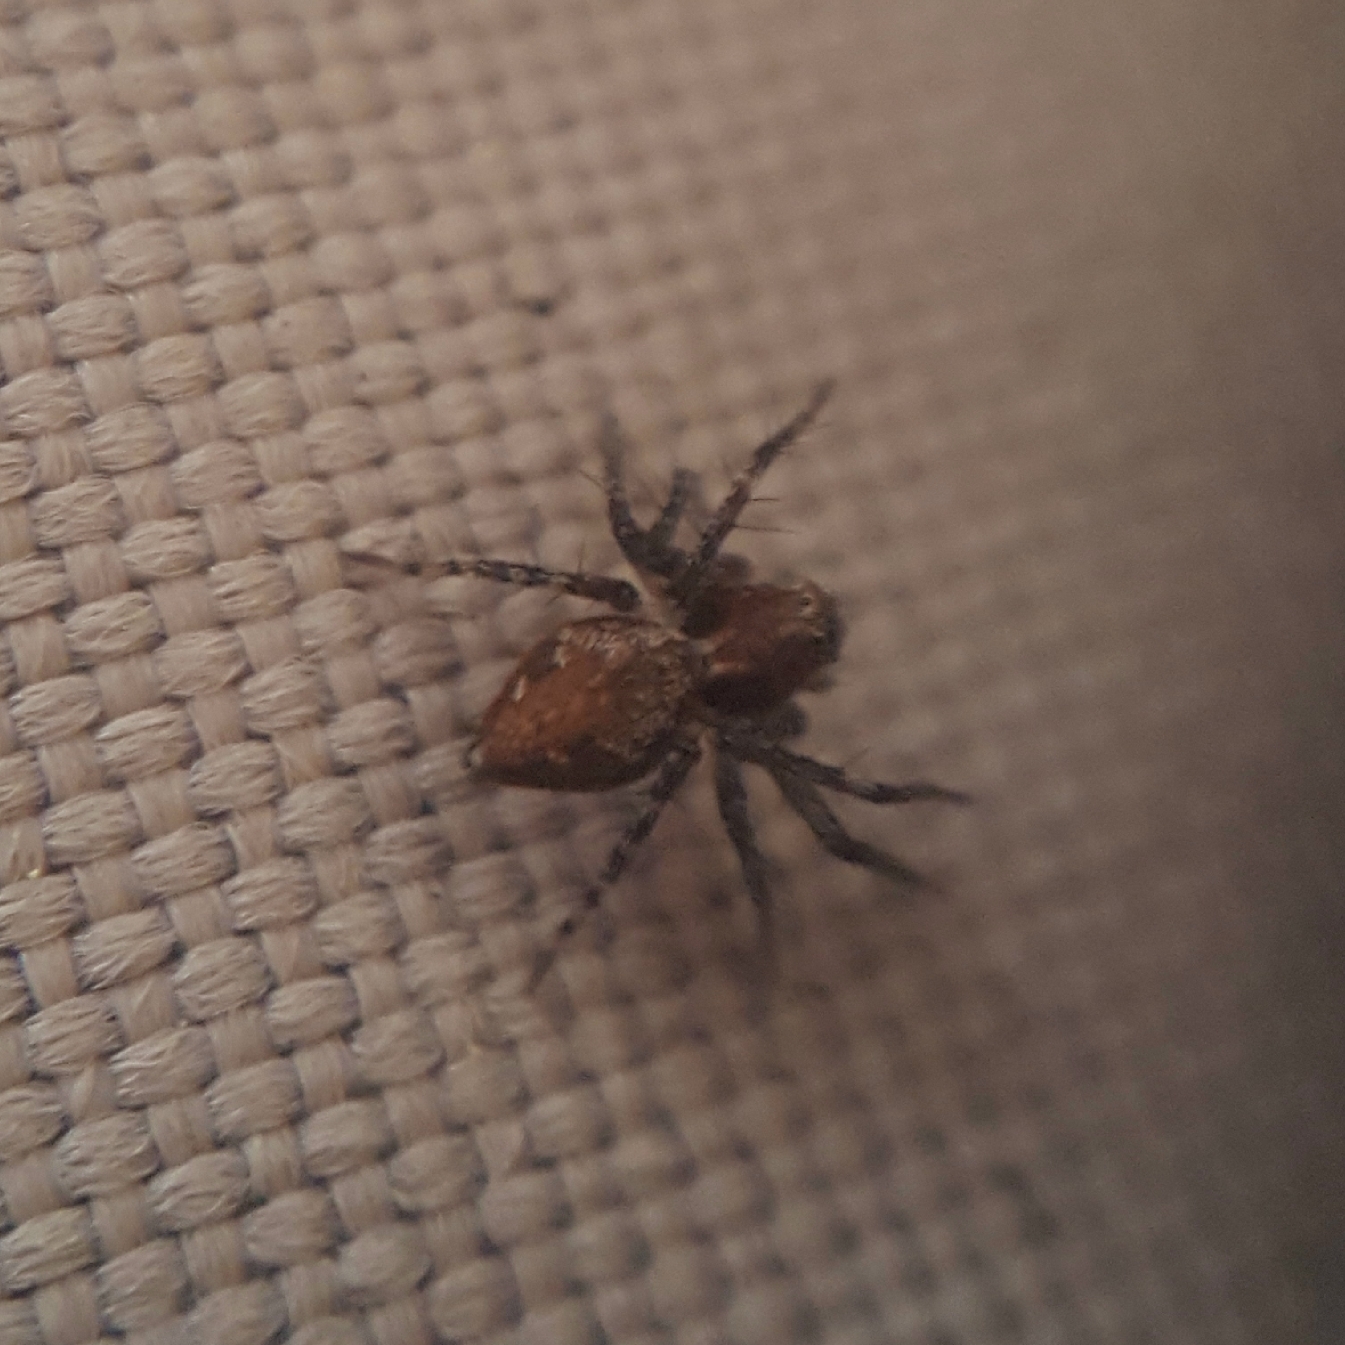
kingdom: Animalia
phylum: Arthropoda
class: Arachnida
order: Araneae
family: Oxyopidae
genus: Oxyopes
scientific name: Oxyopes scalaris
